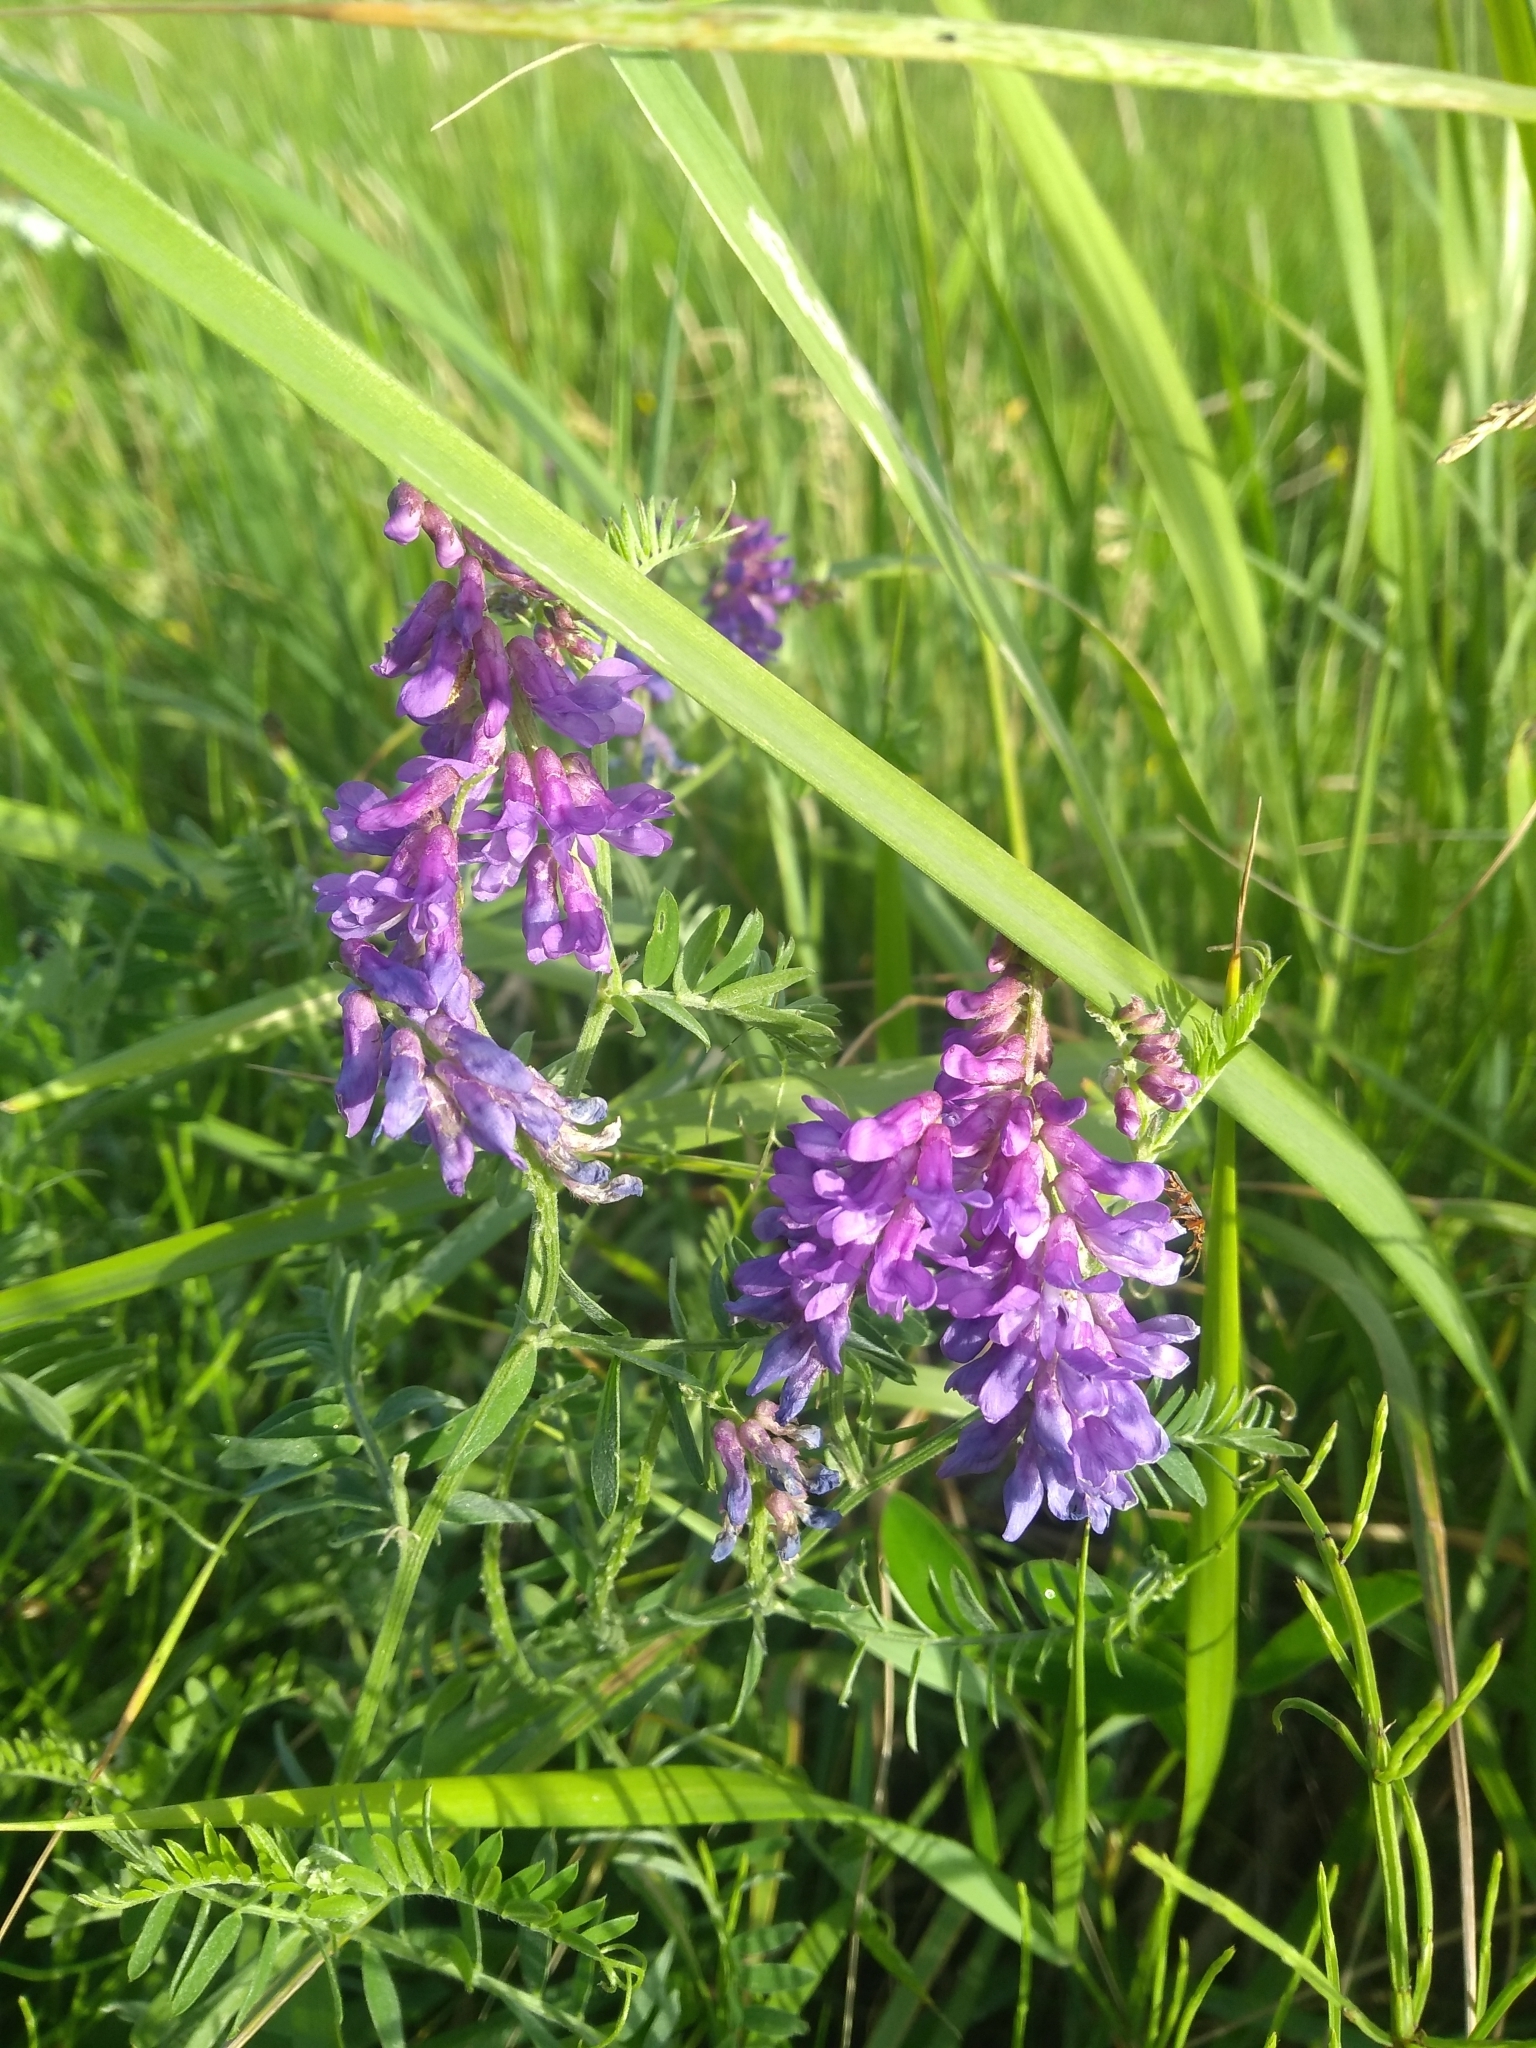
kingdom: Plantae
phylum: Tracheophyta
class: Magnoliopsida
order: Fabales
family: Fabaceae
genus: Vicia
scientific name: Vicia cracca
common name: Bird vetch
